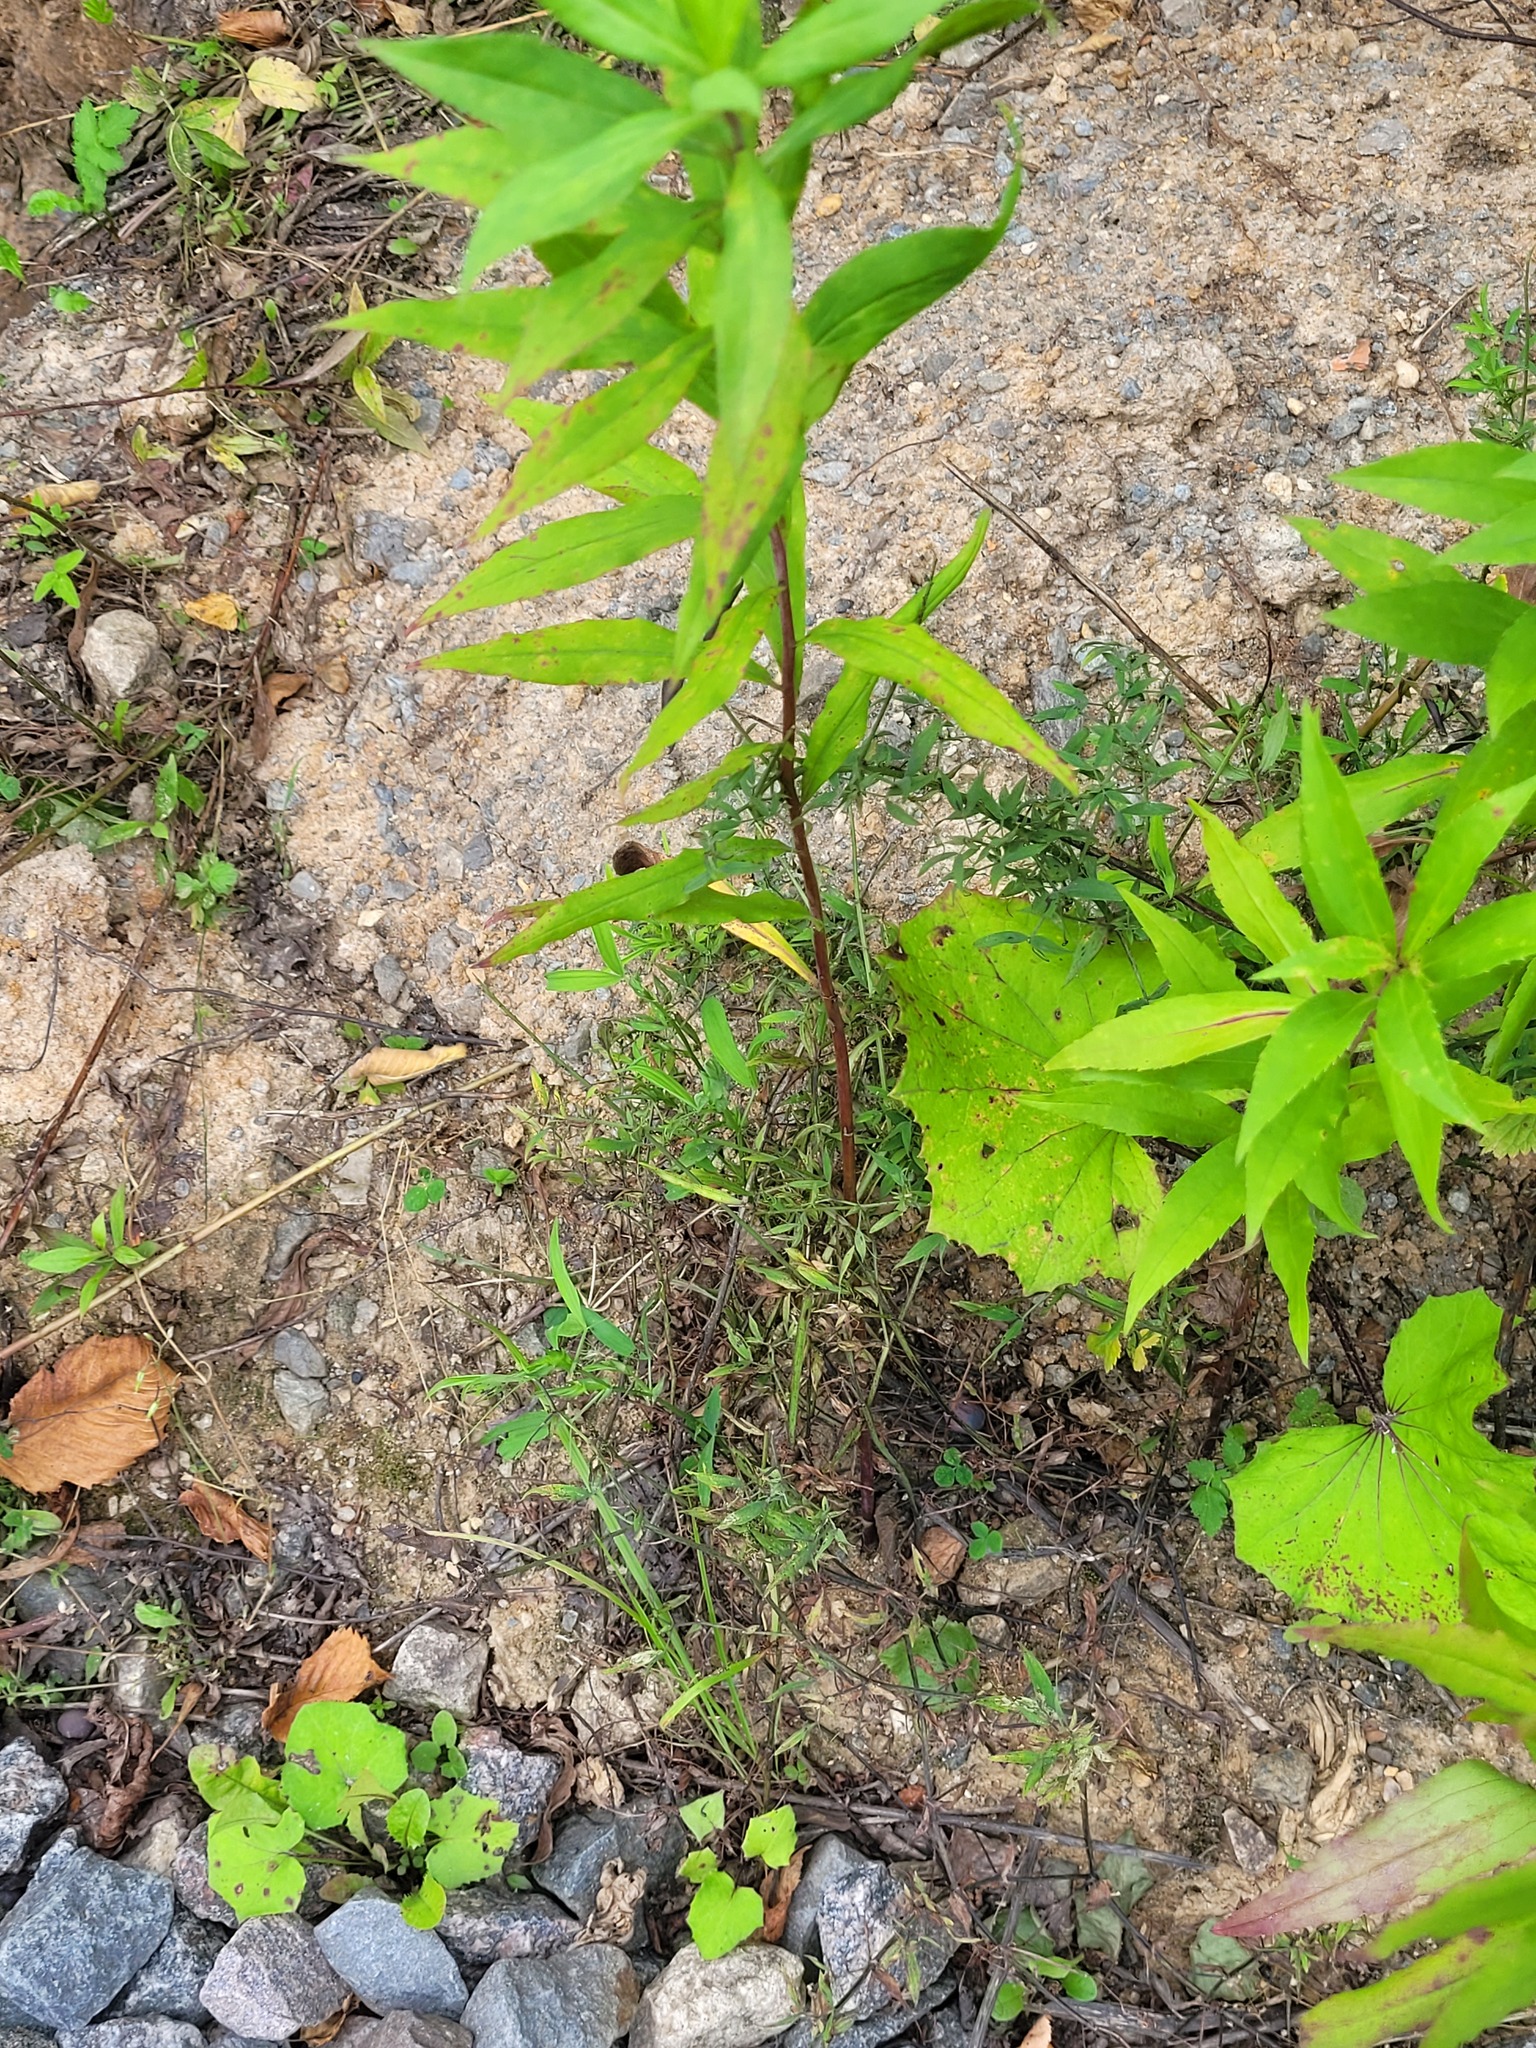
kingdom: Plantae
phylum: Tracheophyta
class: Magnoliopsida
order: Fabales
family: Fabaceae
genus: Lathyrus
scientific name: Lathyrus pratensis
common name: Meadow vetchling
